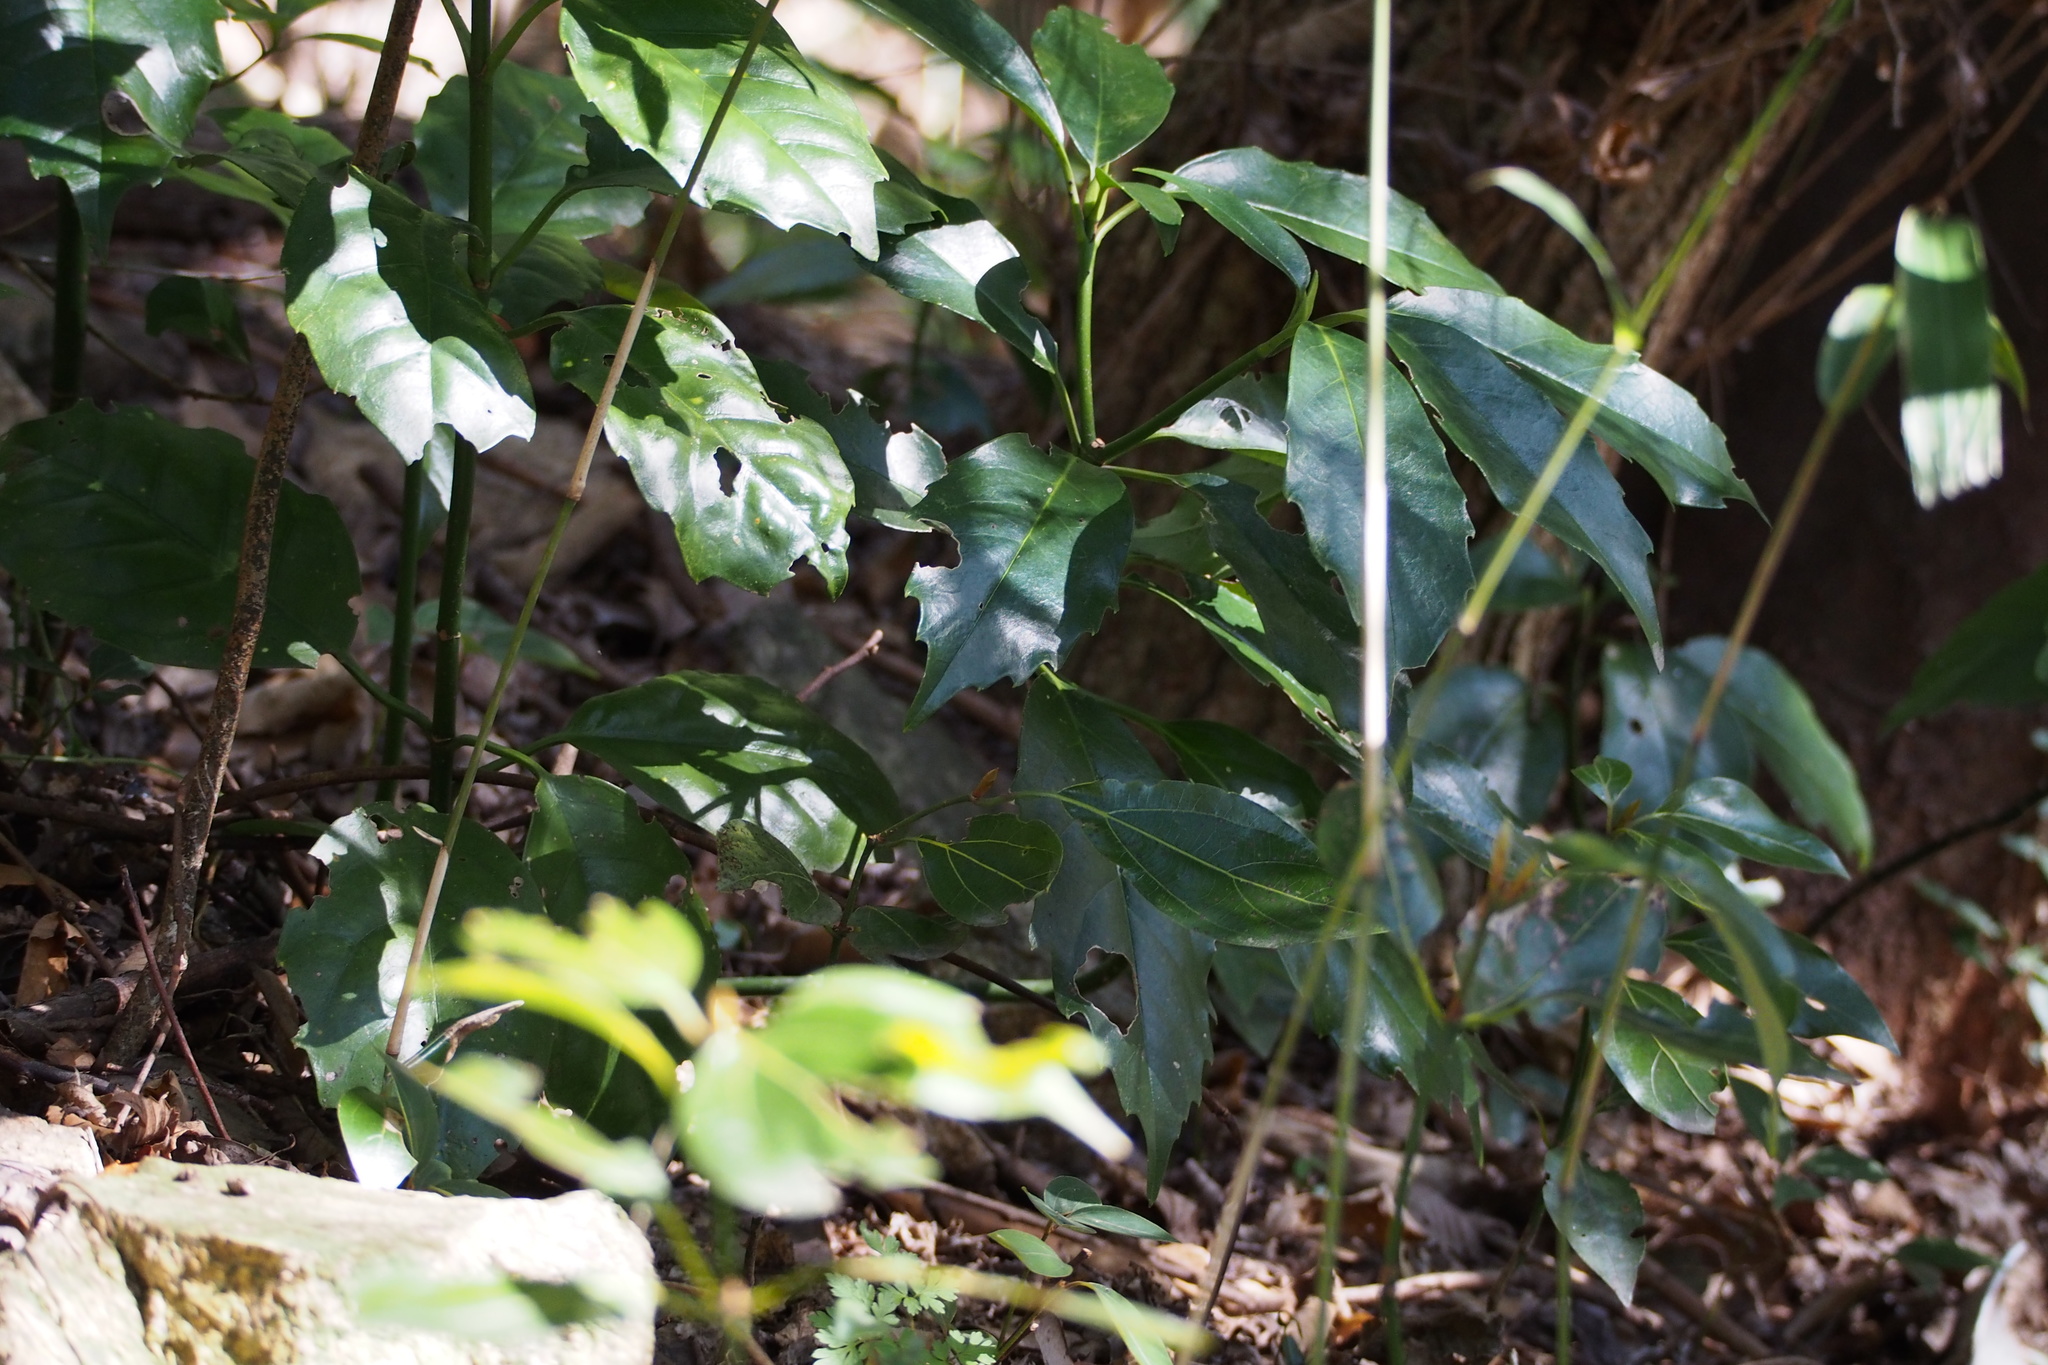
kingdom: Plantae
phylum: Tracheophyta
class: Magnoliopsida
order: Garryales
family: Garryaceae
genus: Aucuba
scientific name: Aucuba japonica
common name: Spotted-laurel
